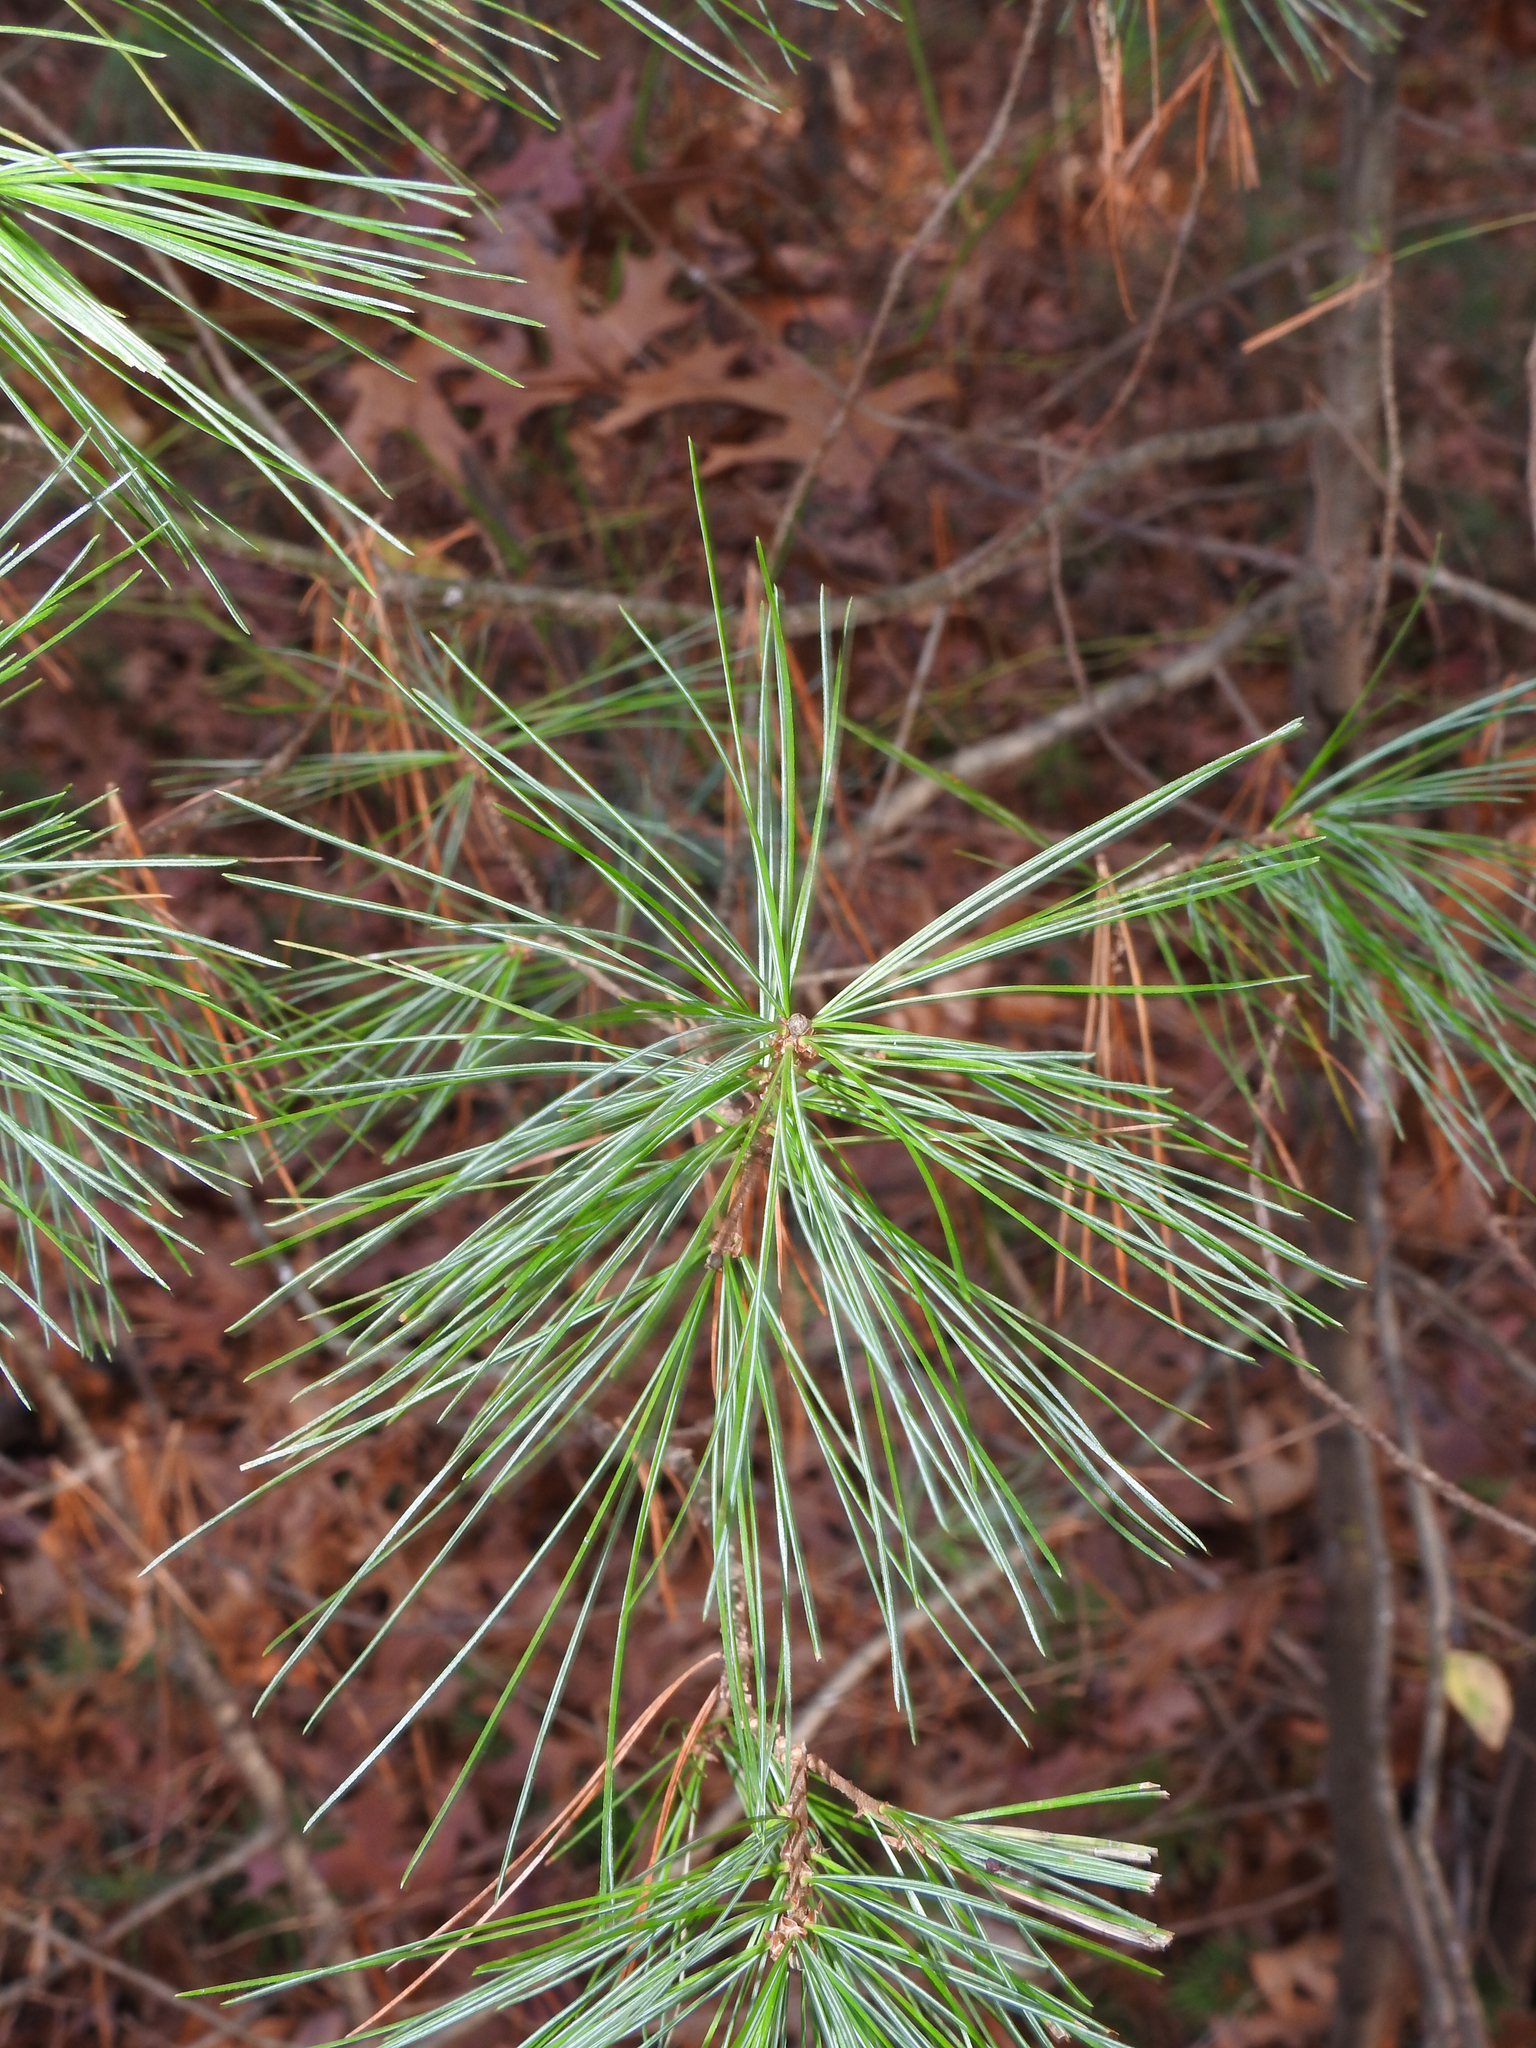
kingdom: Plantae
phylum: Tracheophyta
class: Pinopsida
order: Pinales
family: Pinaceae
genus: Pinus
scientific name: Pinus strobus
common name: Weymouth pine
